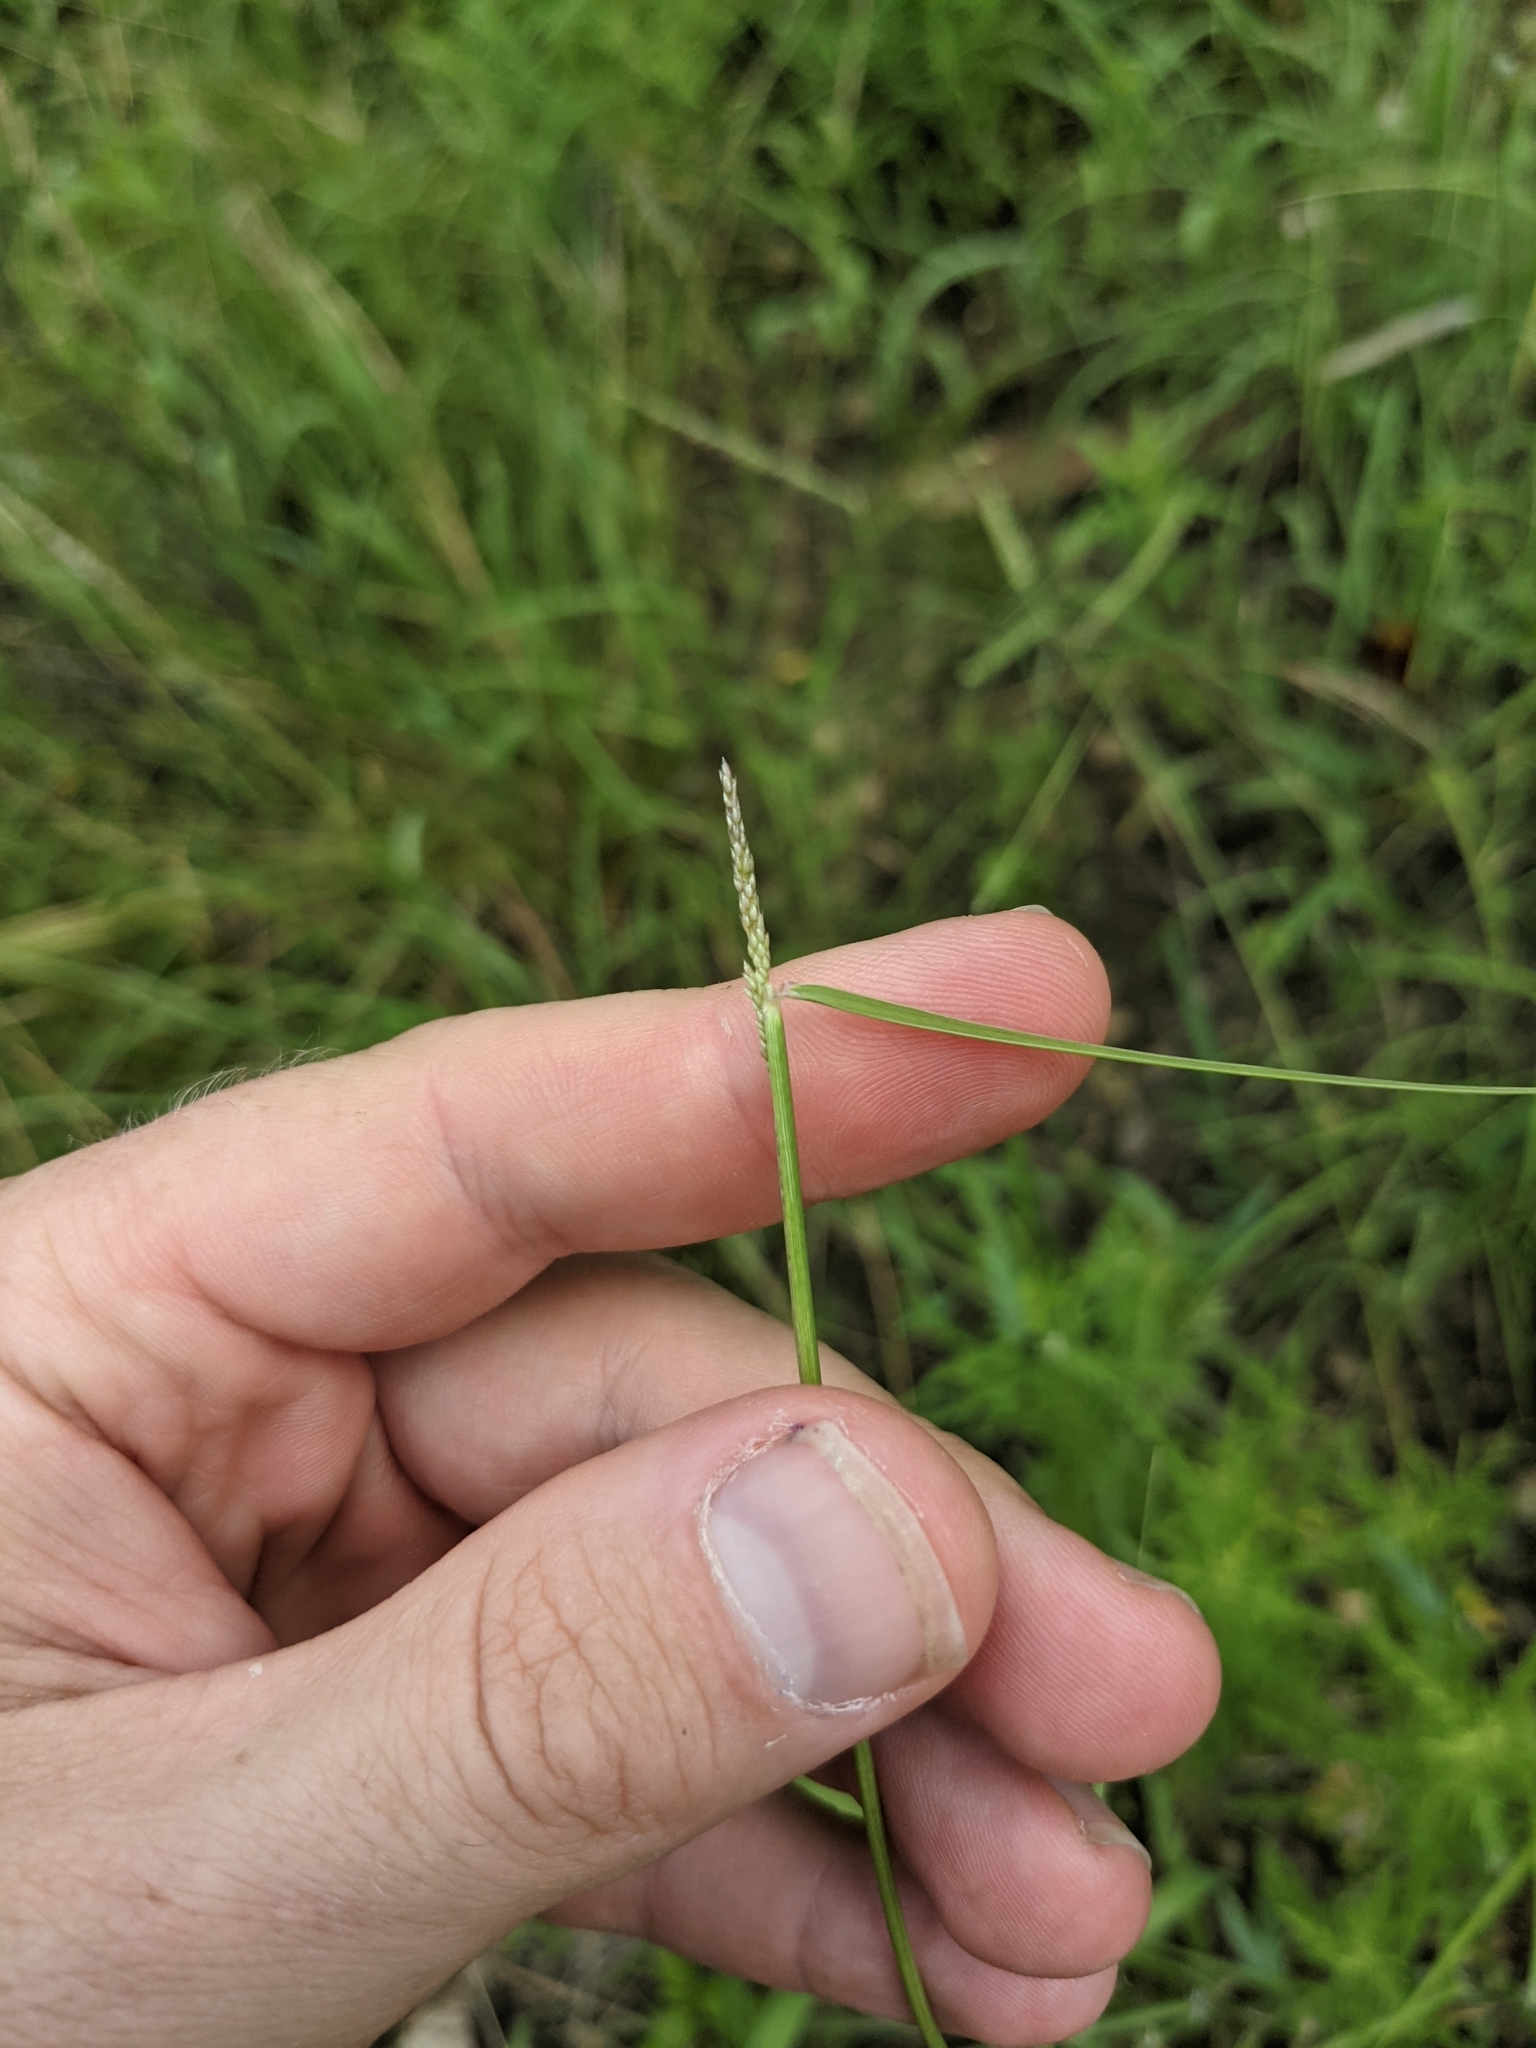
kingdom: Plantae
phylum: Tracheophyta
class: Liliopsida
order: Poales
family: Poaceae
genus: Sporobolus
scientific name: Sporobolus cryptandrus
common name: Sand dropseed
